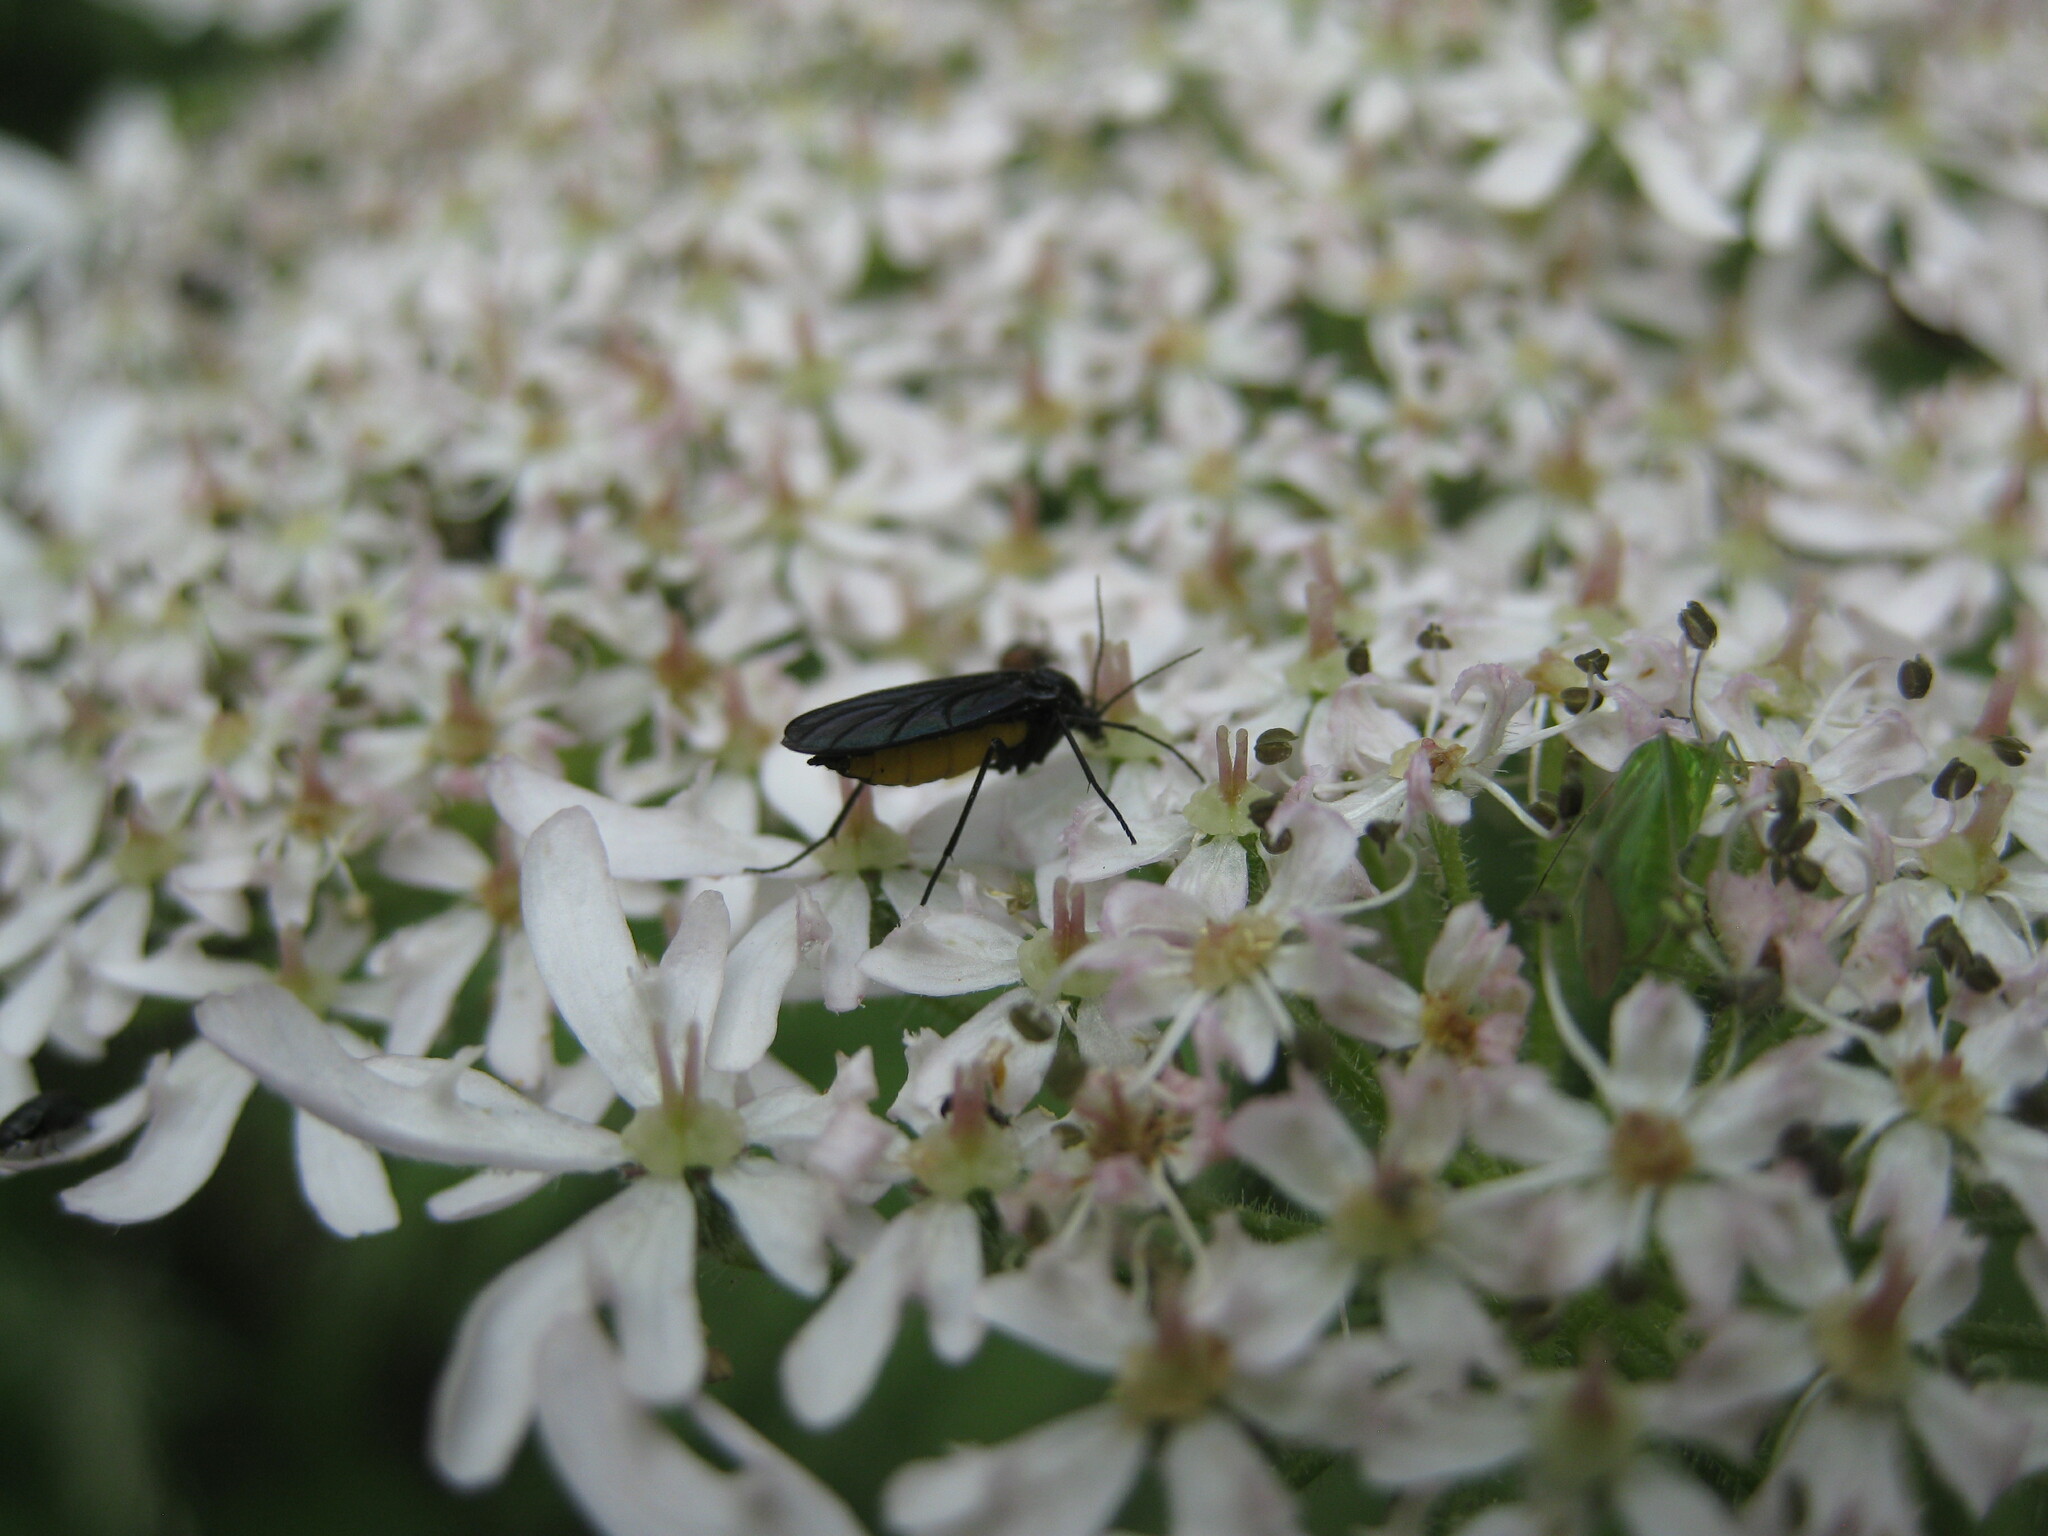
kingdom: Animalia
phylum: Arthropoda
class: Insecta
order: Diptera
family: Sciaridae
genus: Sciara
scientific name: Sciara hemerobioides
